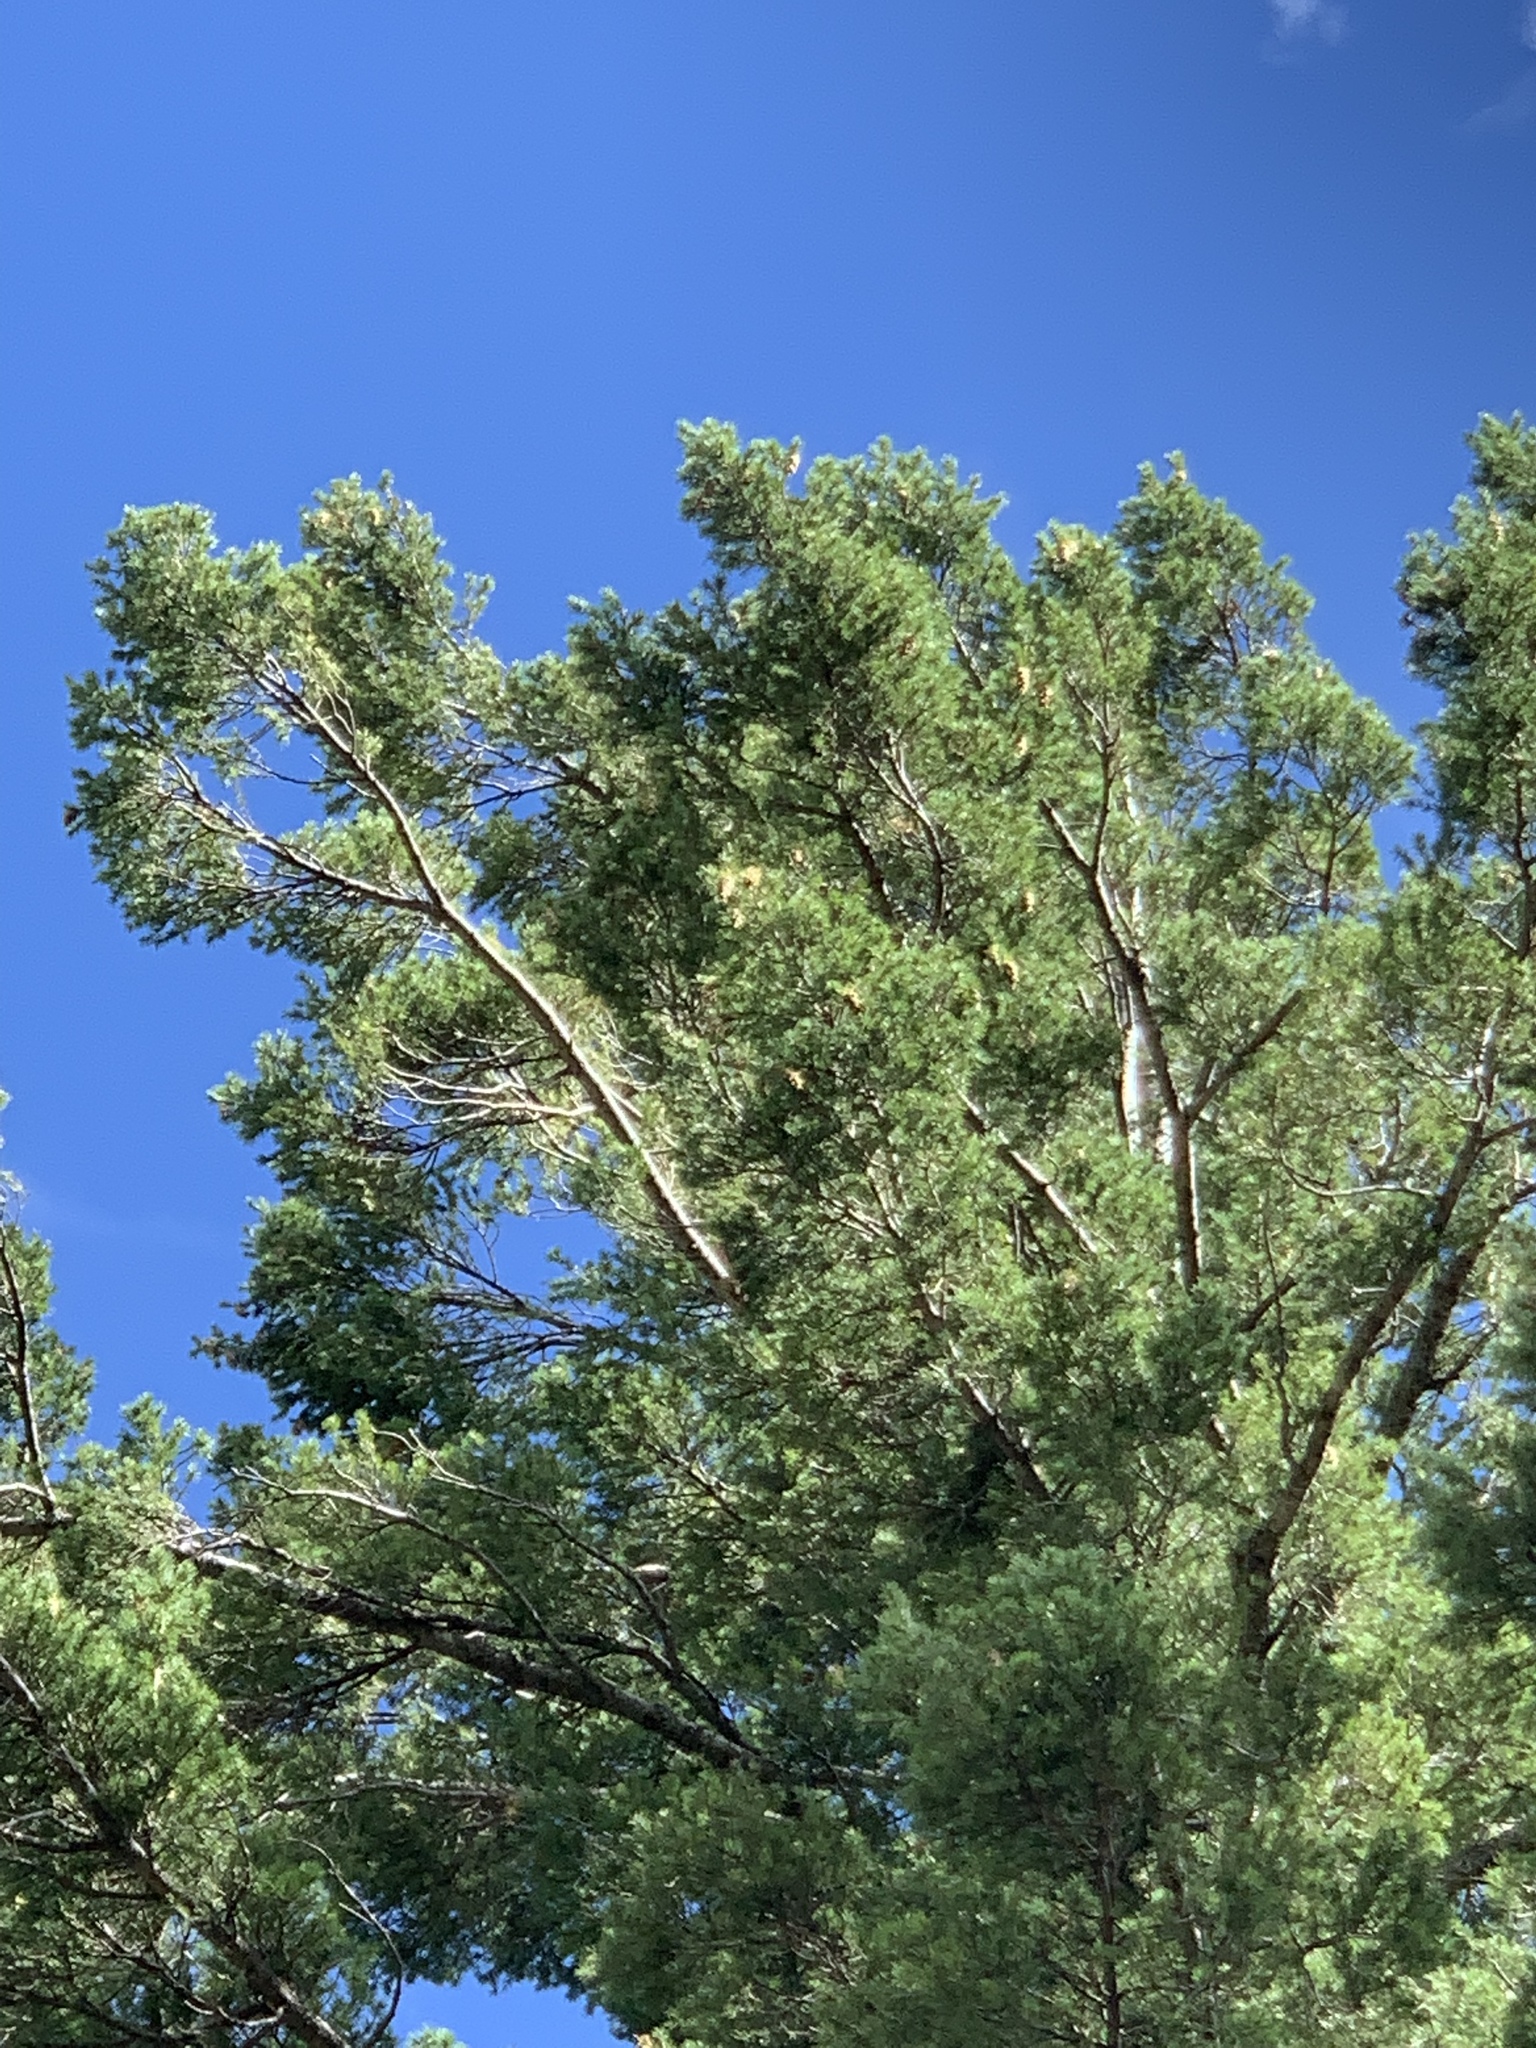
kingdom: Plantae
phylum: Tracheophyta
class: Pinopsida
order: Pinales
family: Pinaceae
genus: Pseudotsuga
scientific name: Pseudotsuga menziesii
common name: Douglas fir
